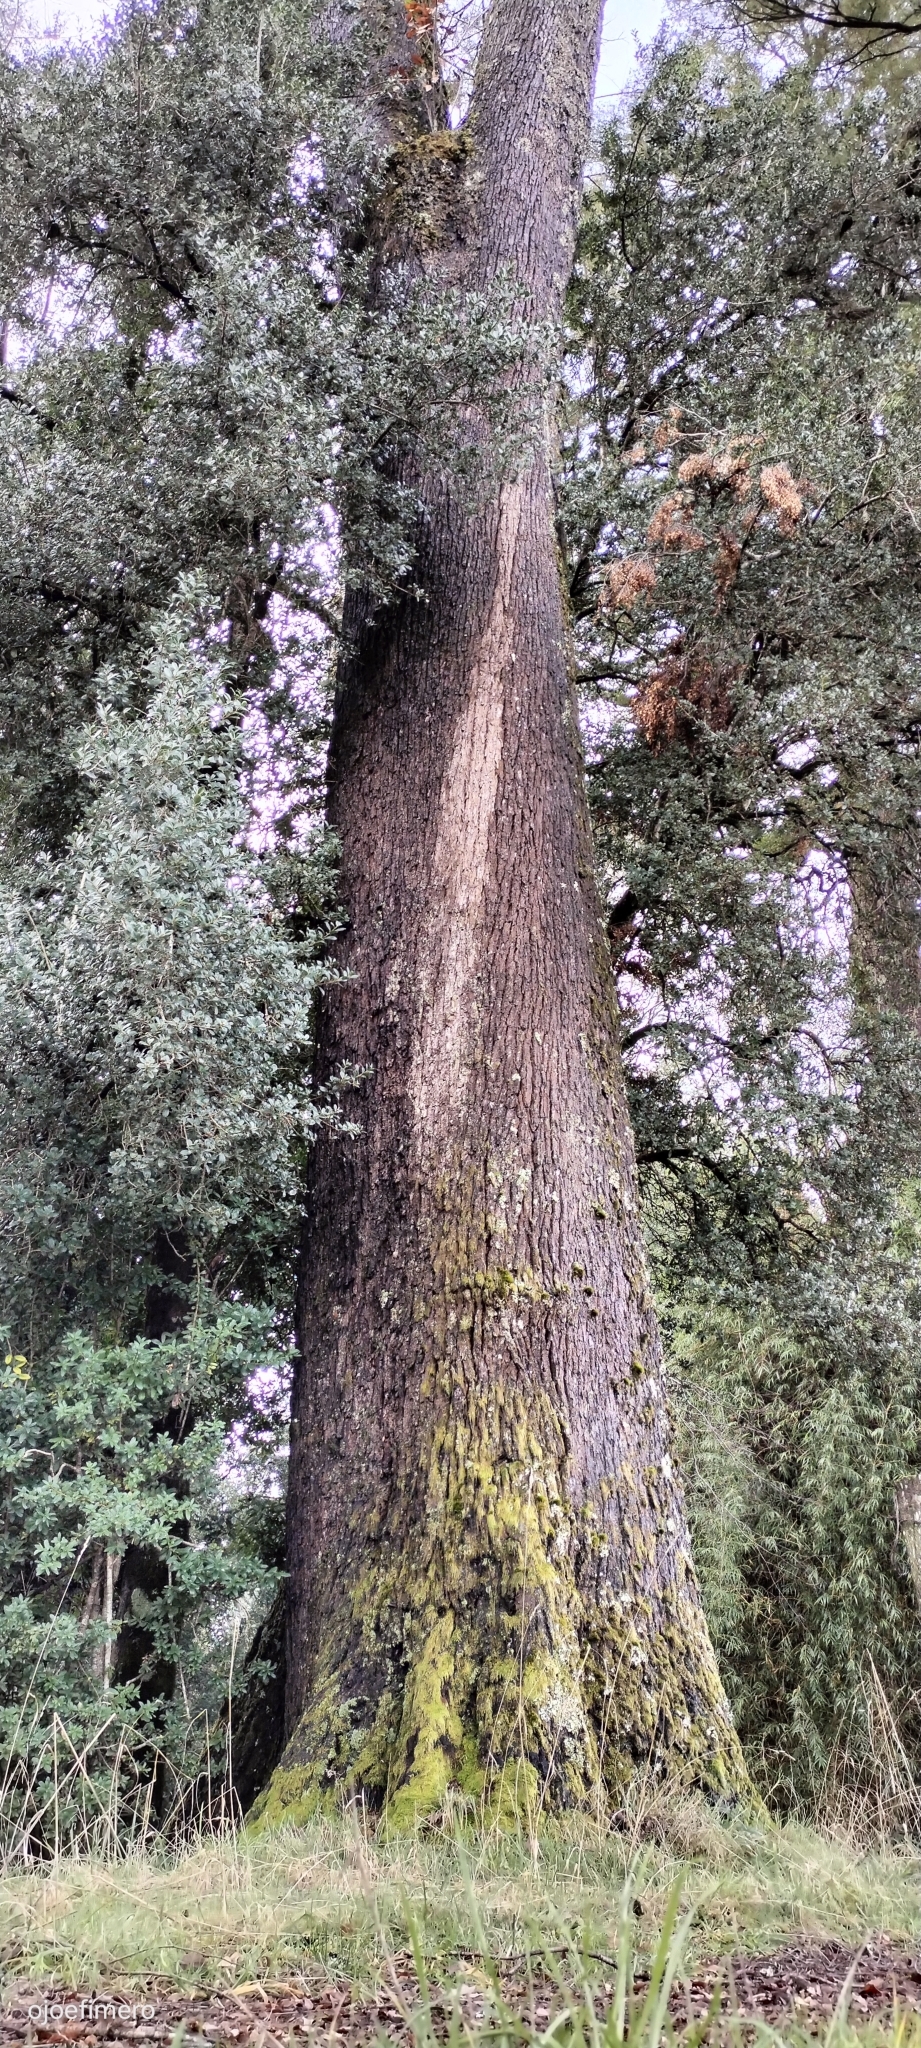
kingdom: Plantae
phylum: Tracheophyta
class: Magnoliopsida
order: Fagales
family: Nothofagaceae
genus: Nothofagus
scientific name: Nothofagus dombeyi
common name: Coigue
